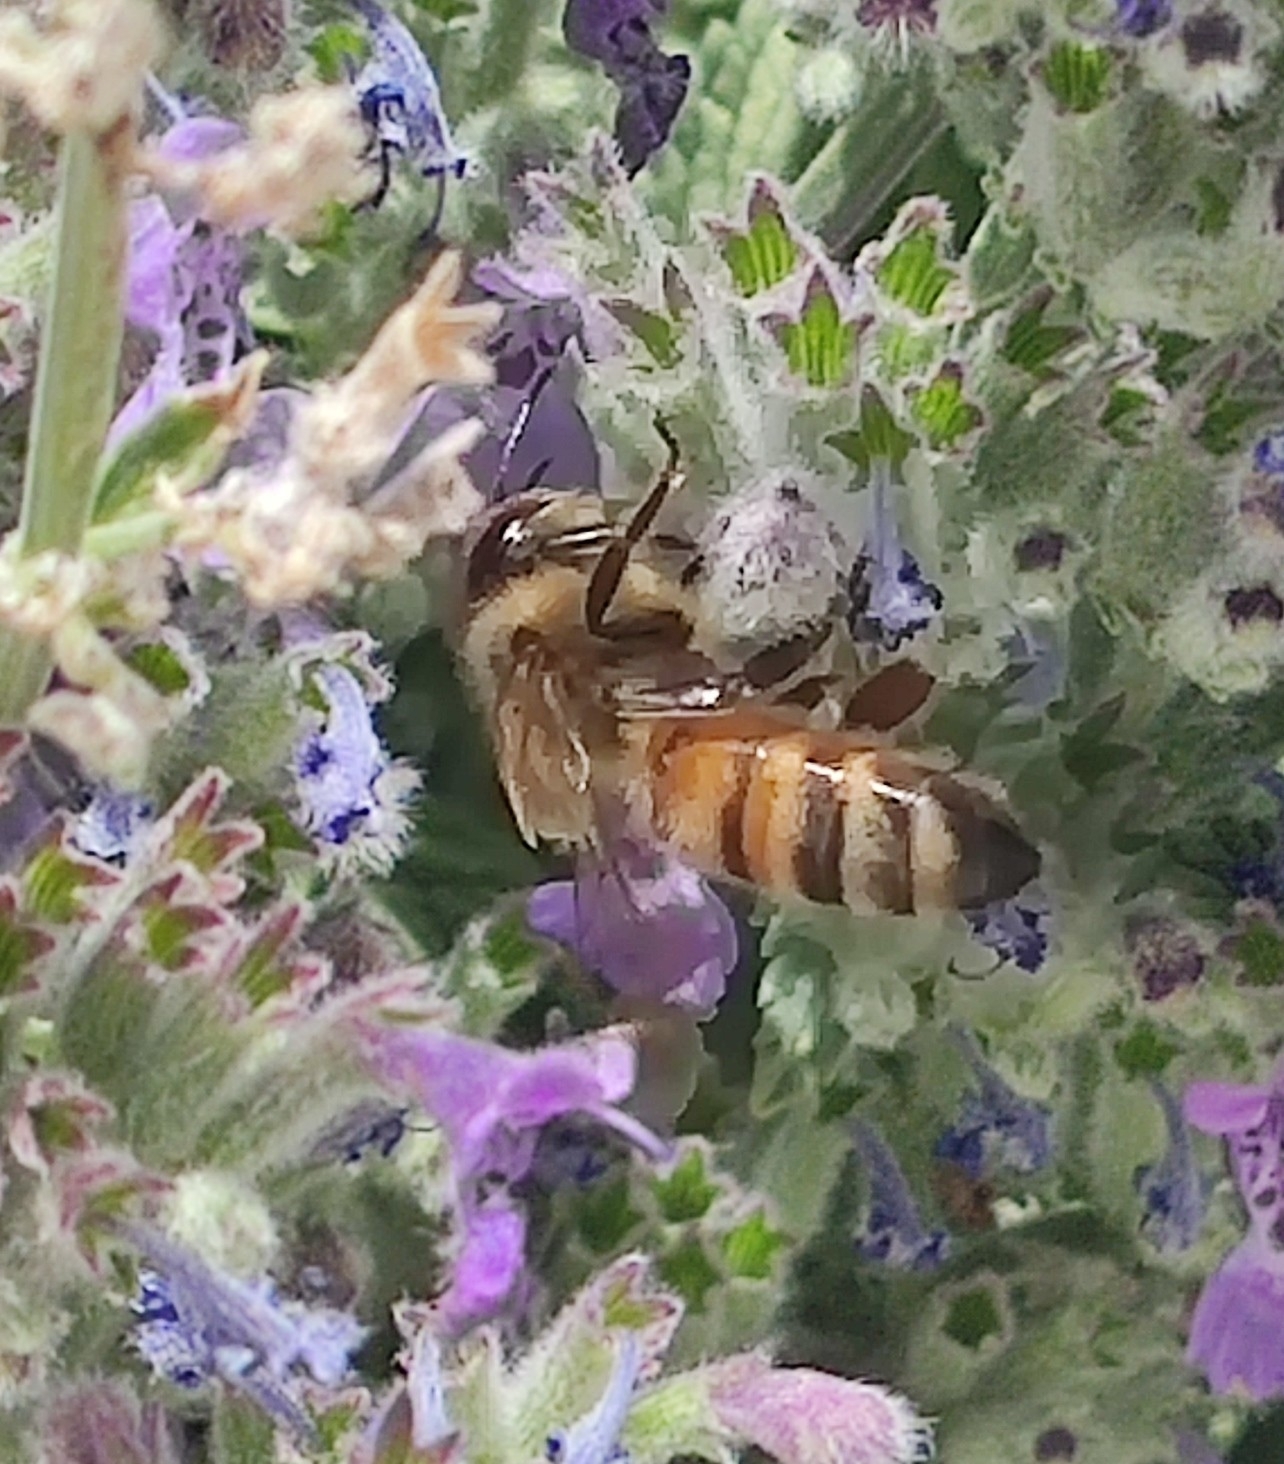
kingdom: Animalia
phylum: Arthropoda
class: Insecta
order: Hymenoptera
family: Apidae
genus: Apis
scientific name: Apis mellifera
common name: Honey bee
